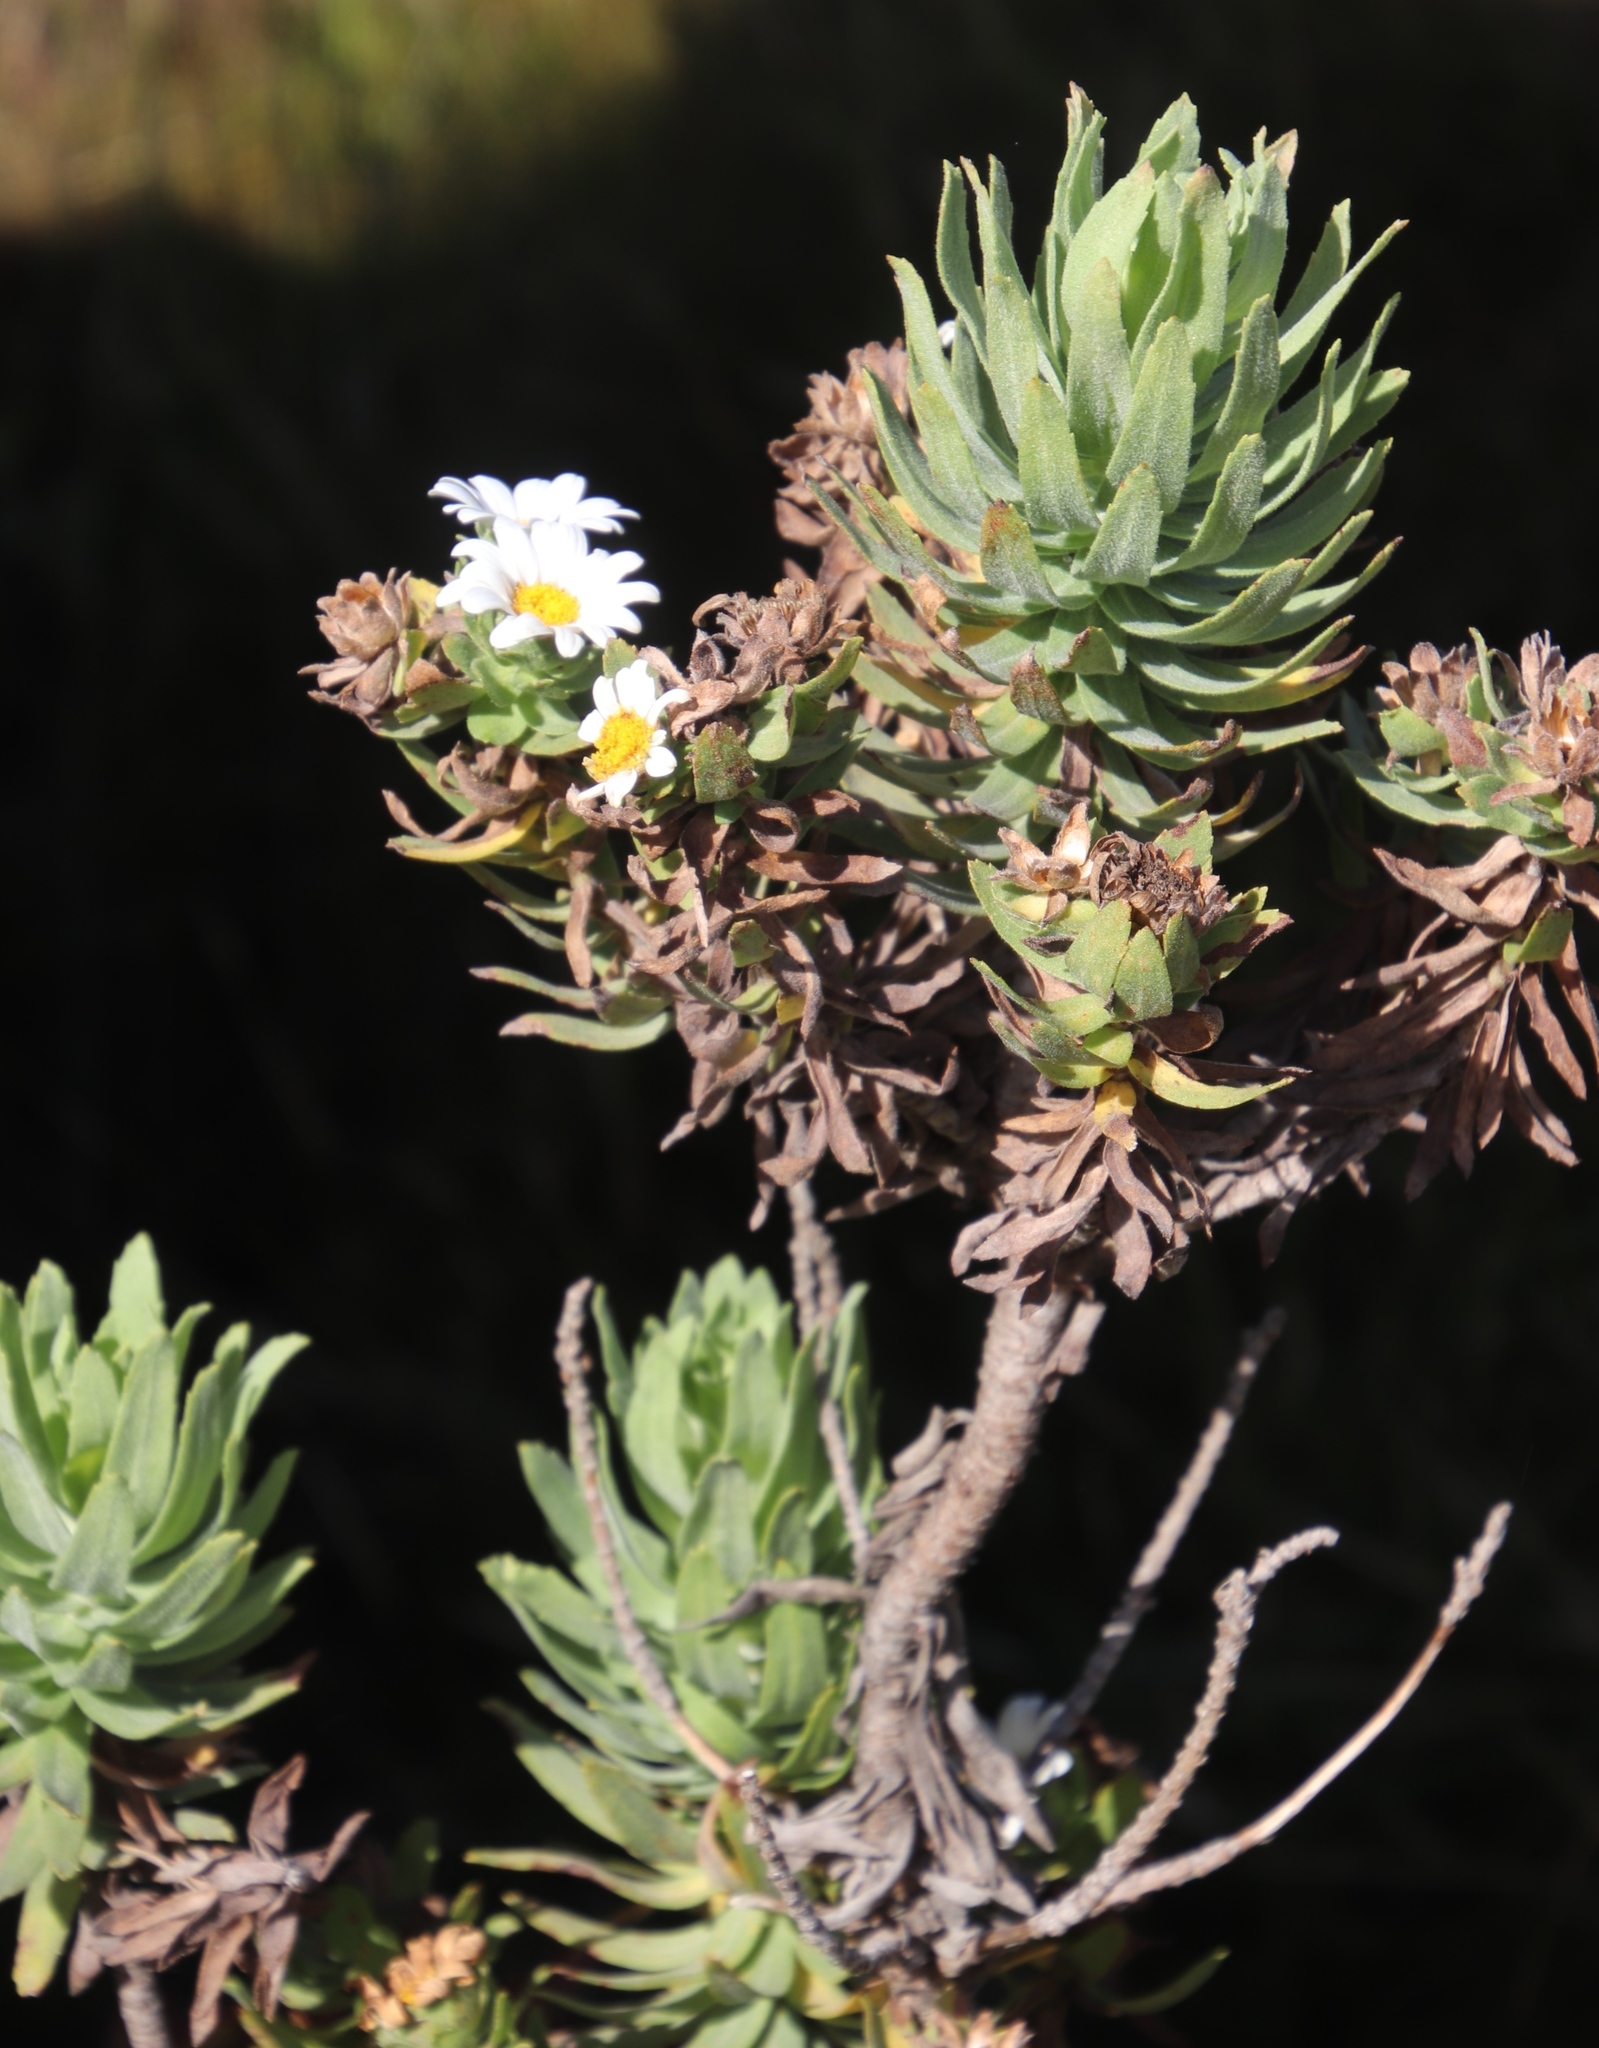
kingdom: Plantae
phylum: Tracheophyta
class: Magnoliopsida
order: Asterales
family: Asteraceae
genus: Osmitopsis
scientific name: Osmitopsis asteriscoides
